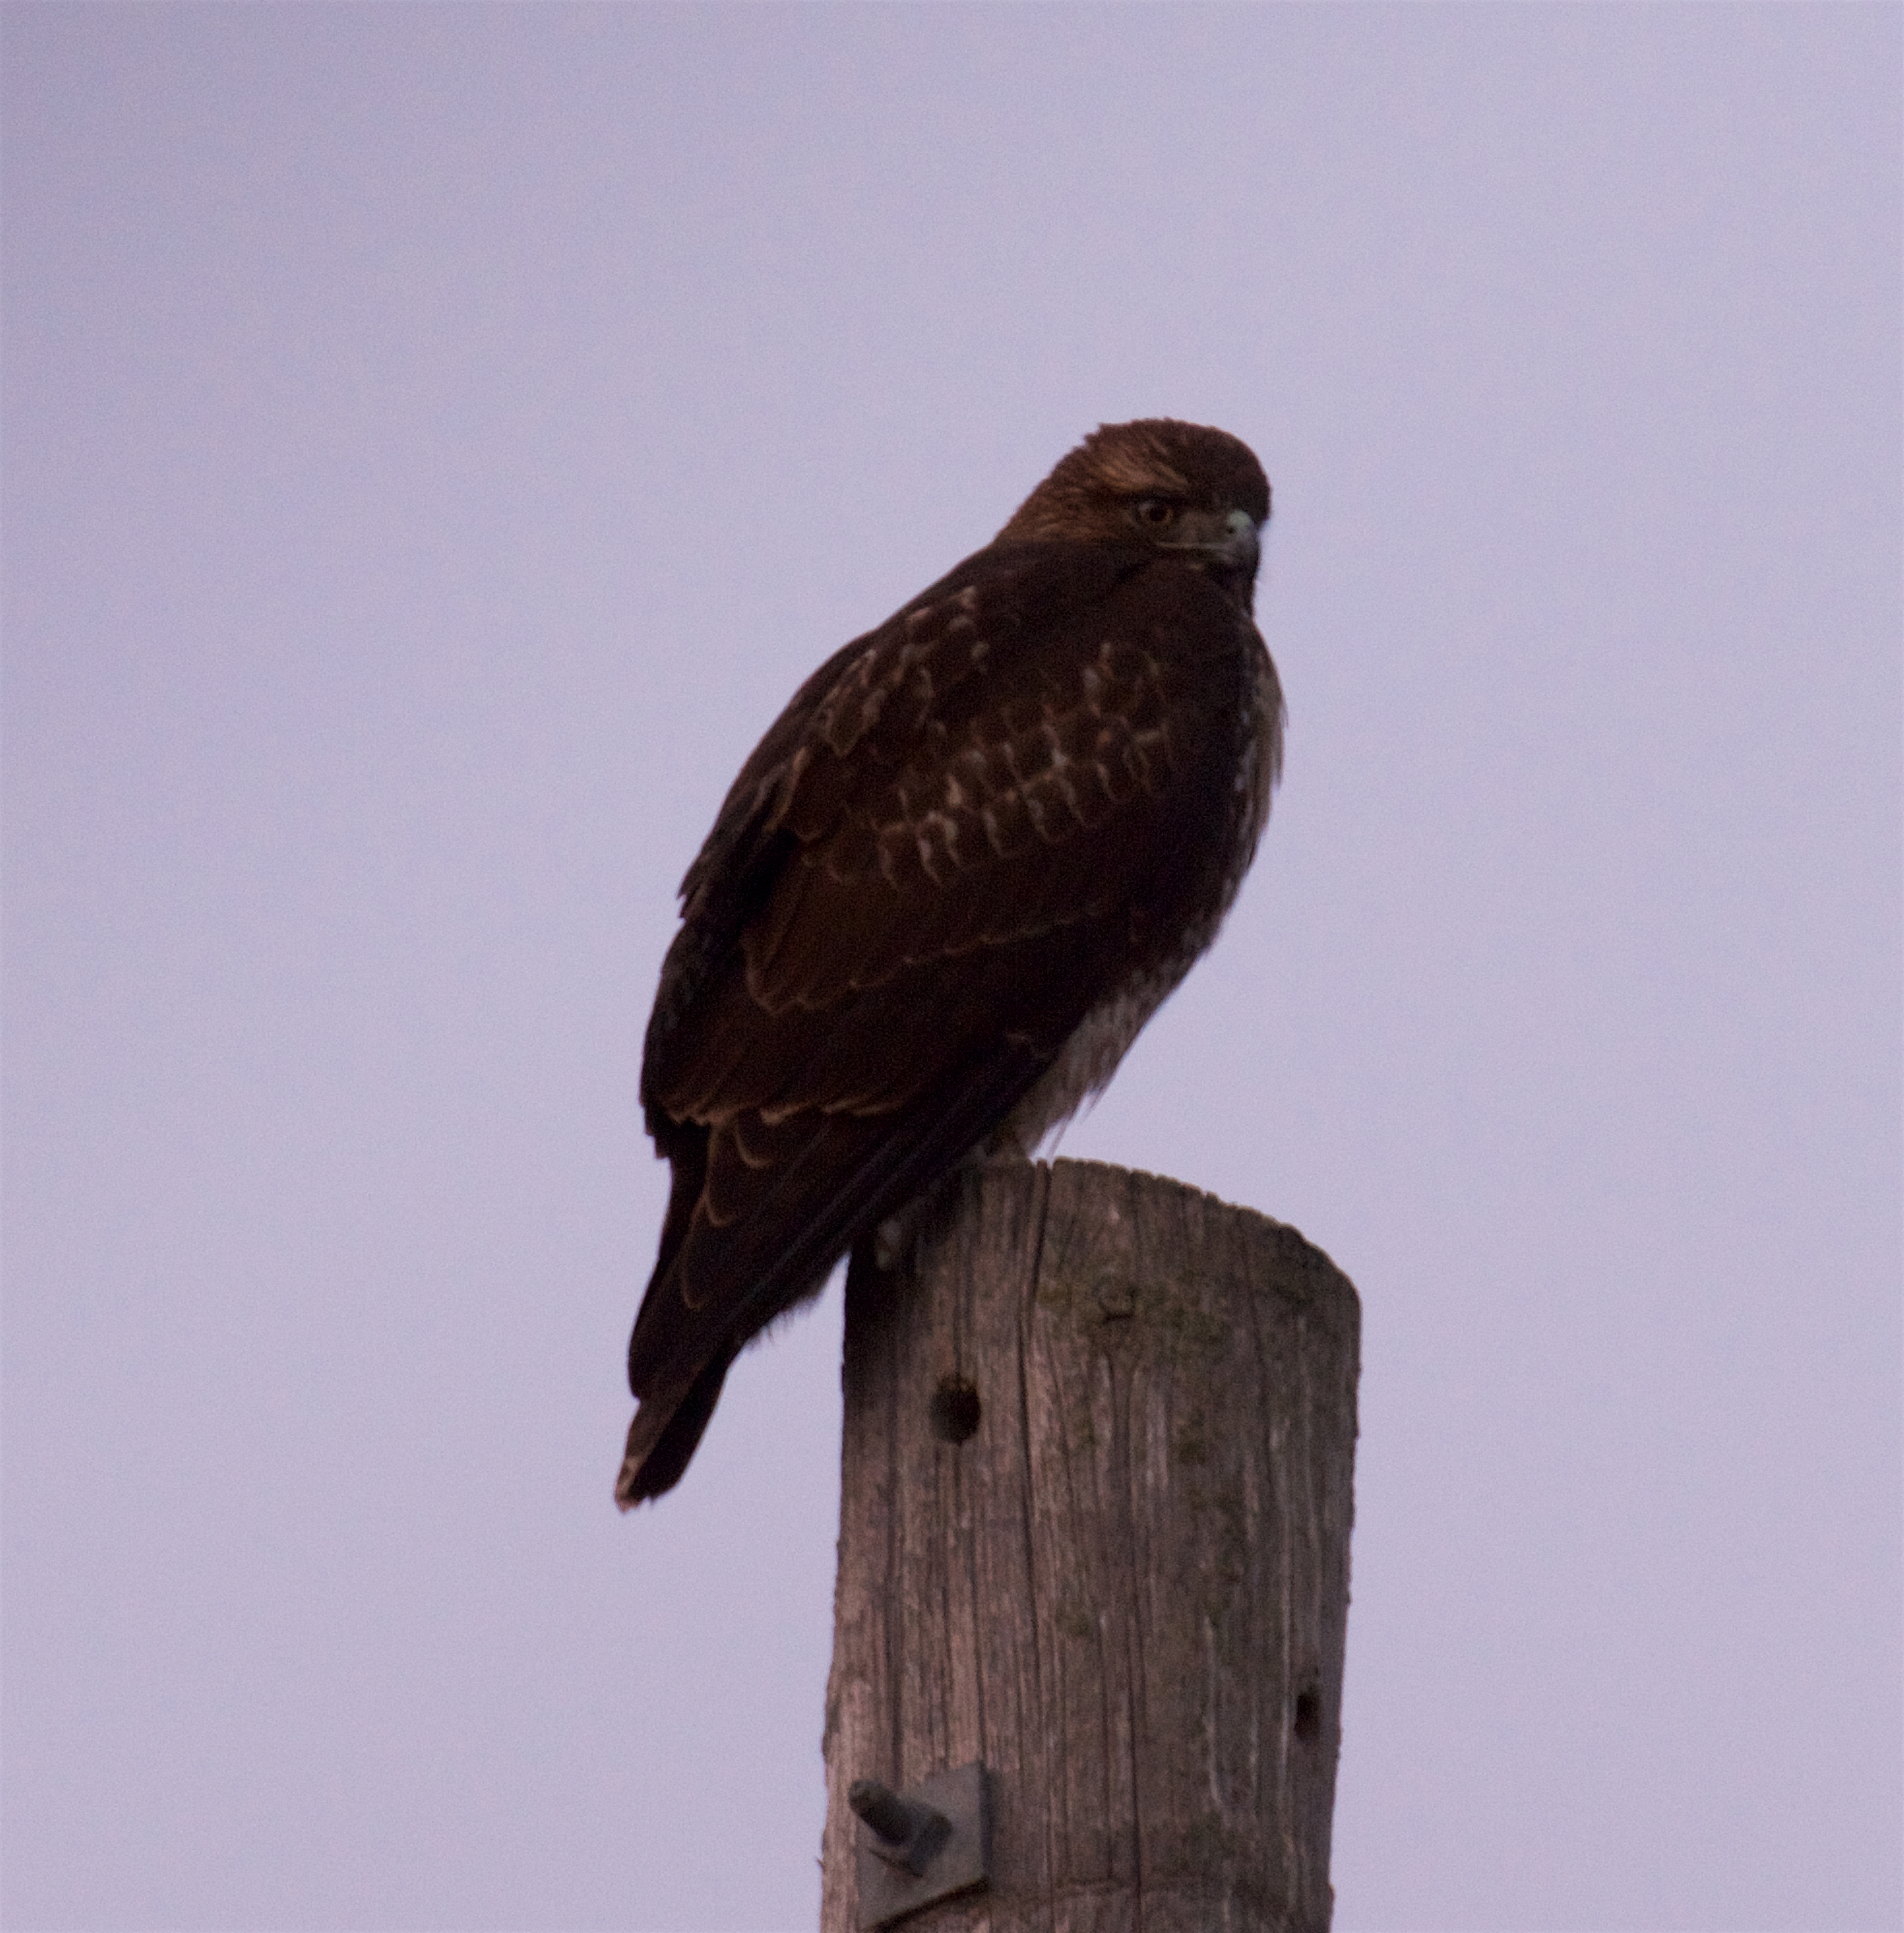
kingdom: Animalia
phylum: Chordata
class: Aves
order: Accipitriformes
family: Accipitridae
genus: Buteo
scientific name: Buteo jamaicensis
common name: Red-tailed hawk
